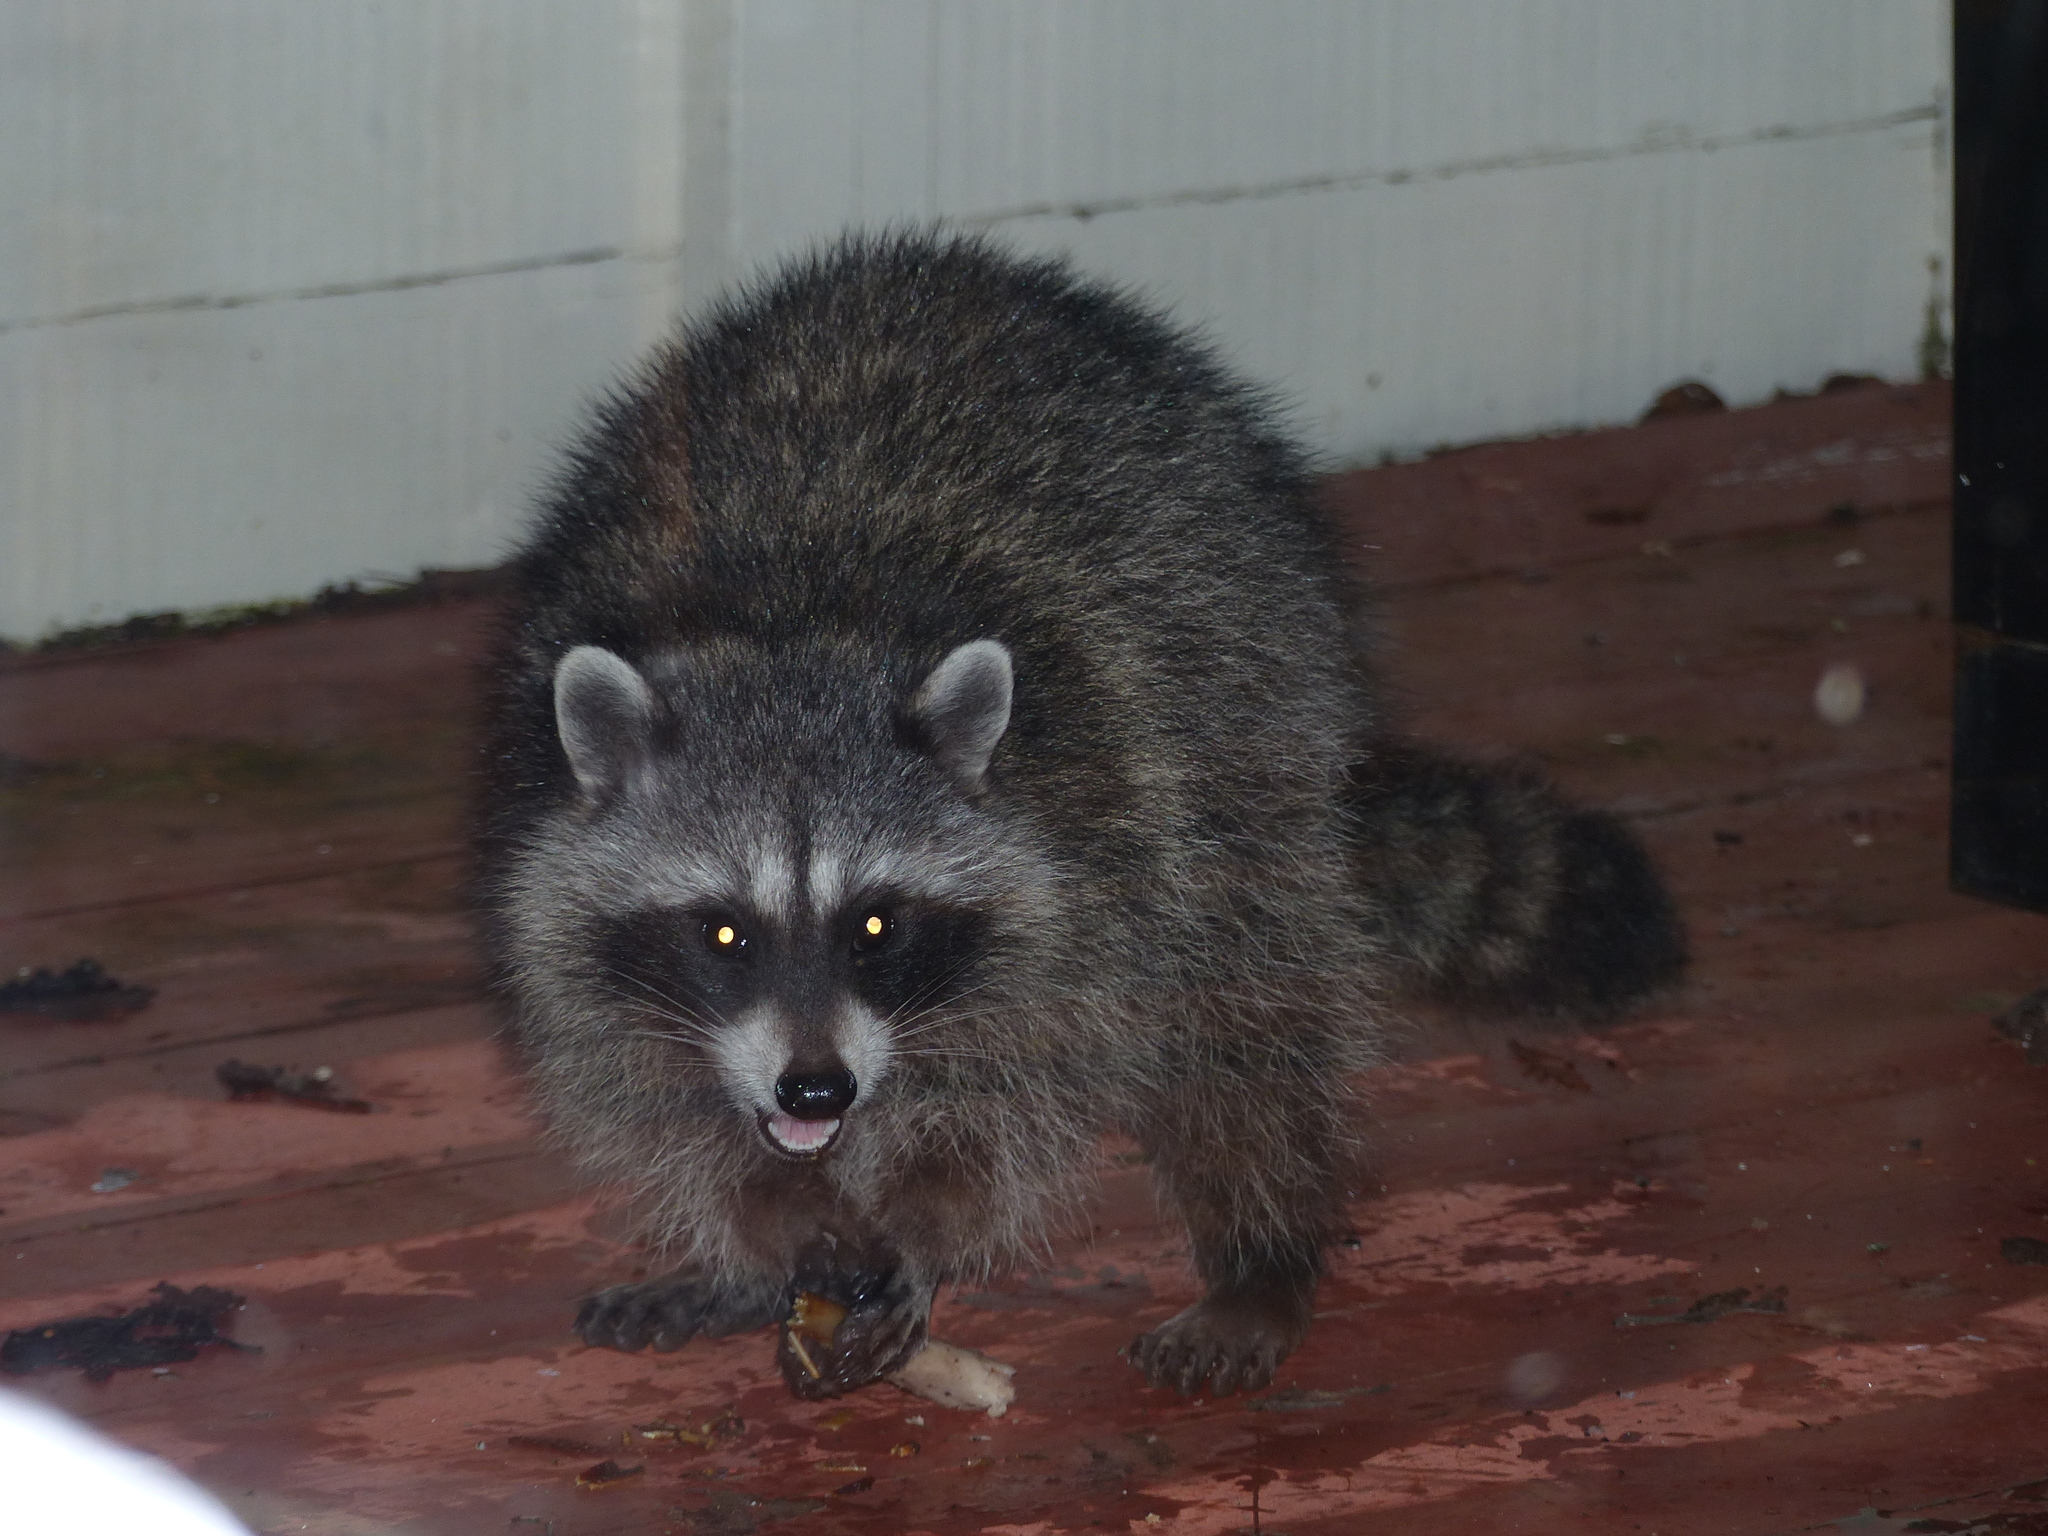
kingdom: Animalia
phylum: Chordata
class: Mammalia
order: Carnivora
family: Procyonidae
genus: Procyon
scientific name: Procyon lotor
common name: Raccoon
